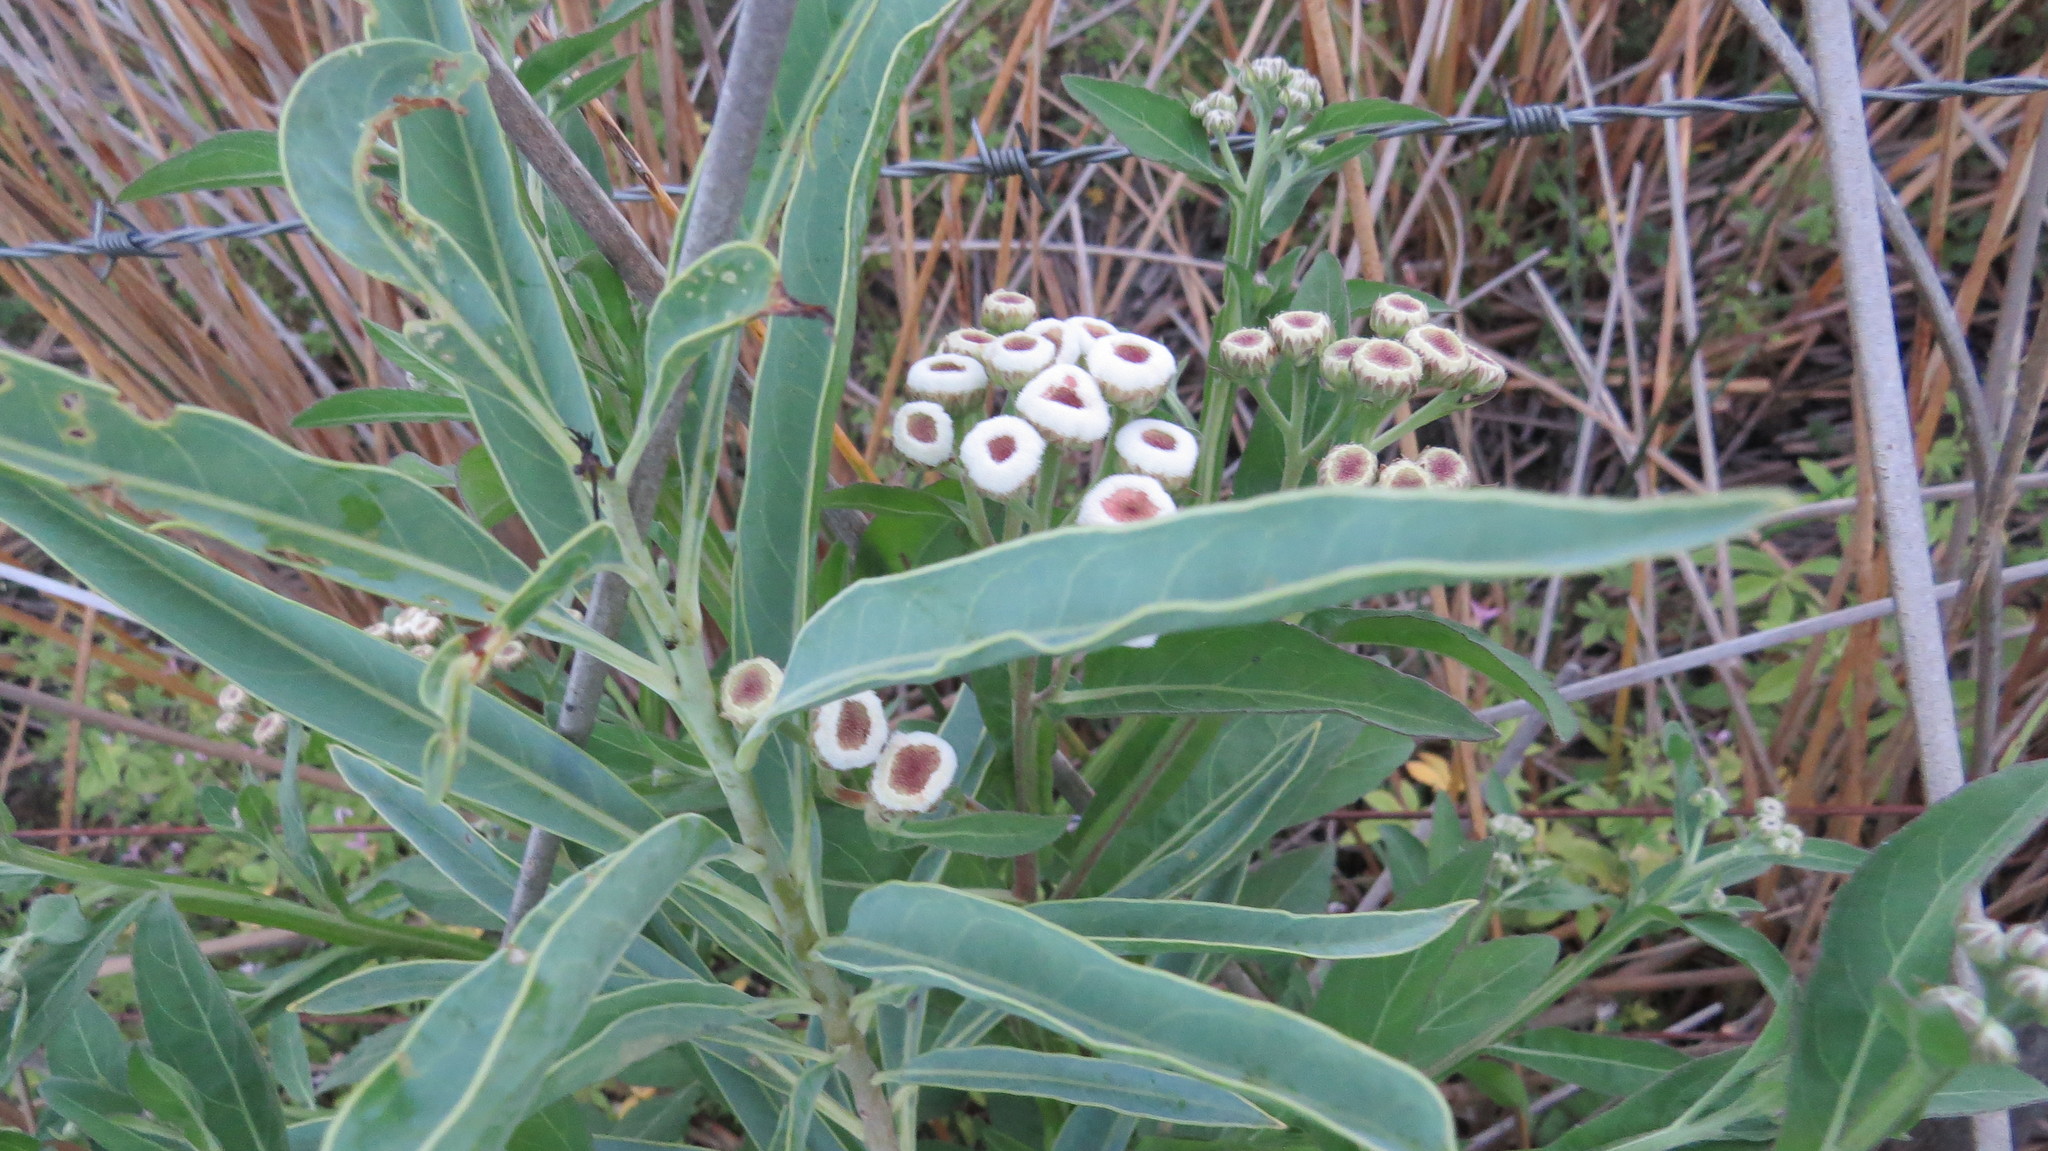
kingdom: Plantae
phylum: Tracheophyta
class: Magnoliopsida
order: Asterales
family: Asteraceae
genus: Pluchea
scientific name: Pluchea sagittalis
